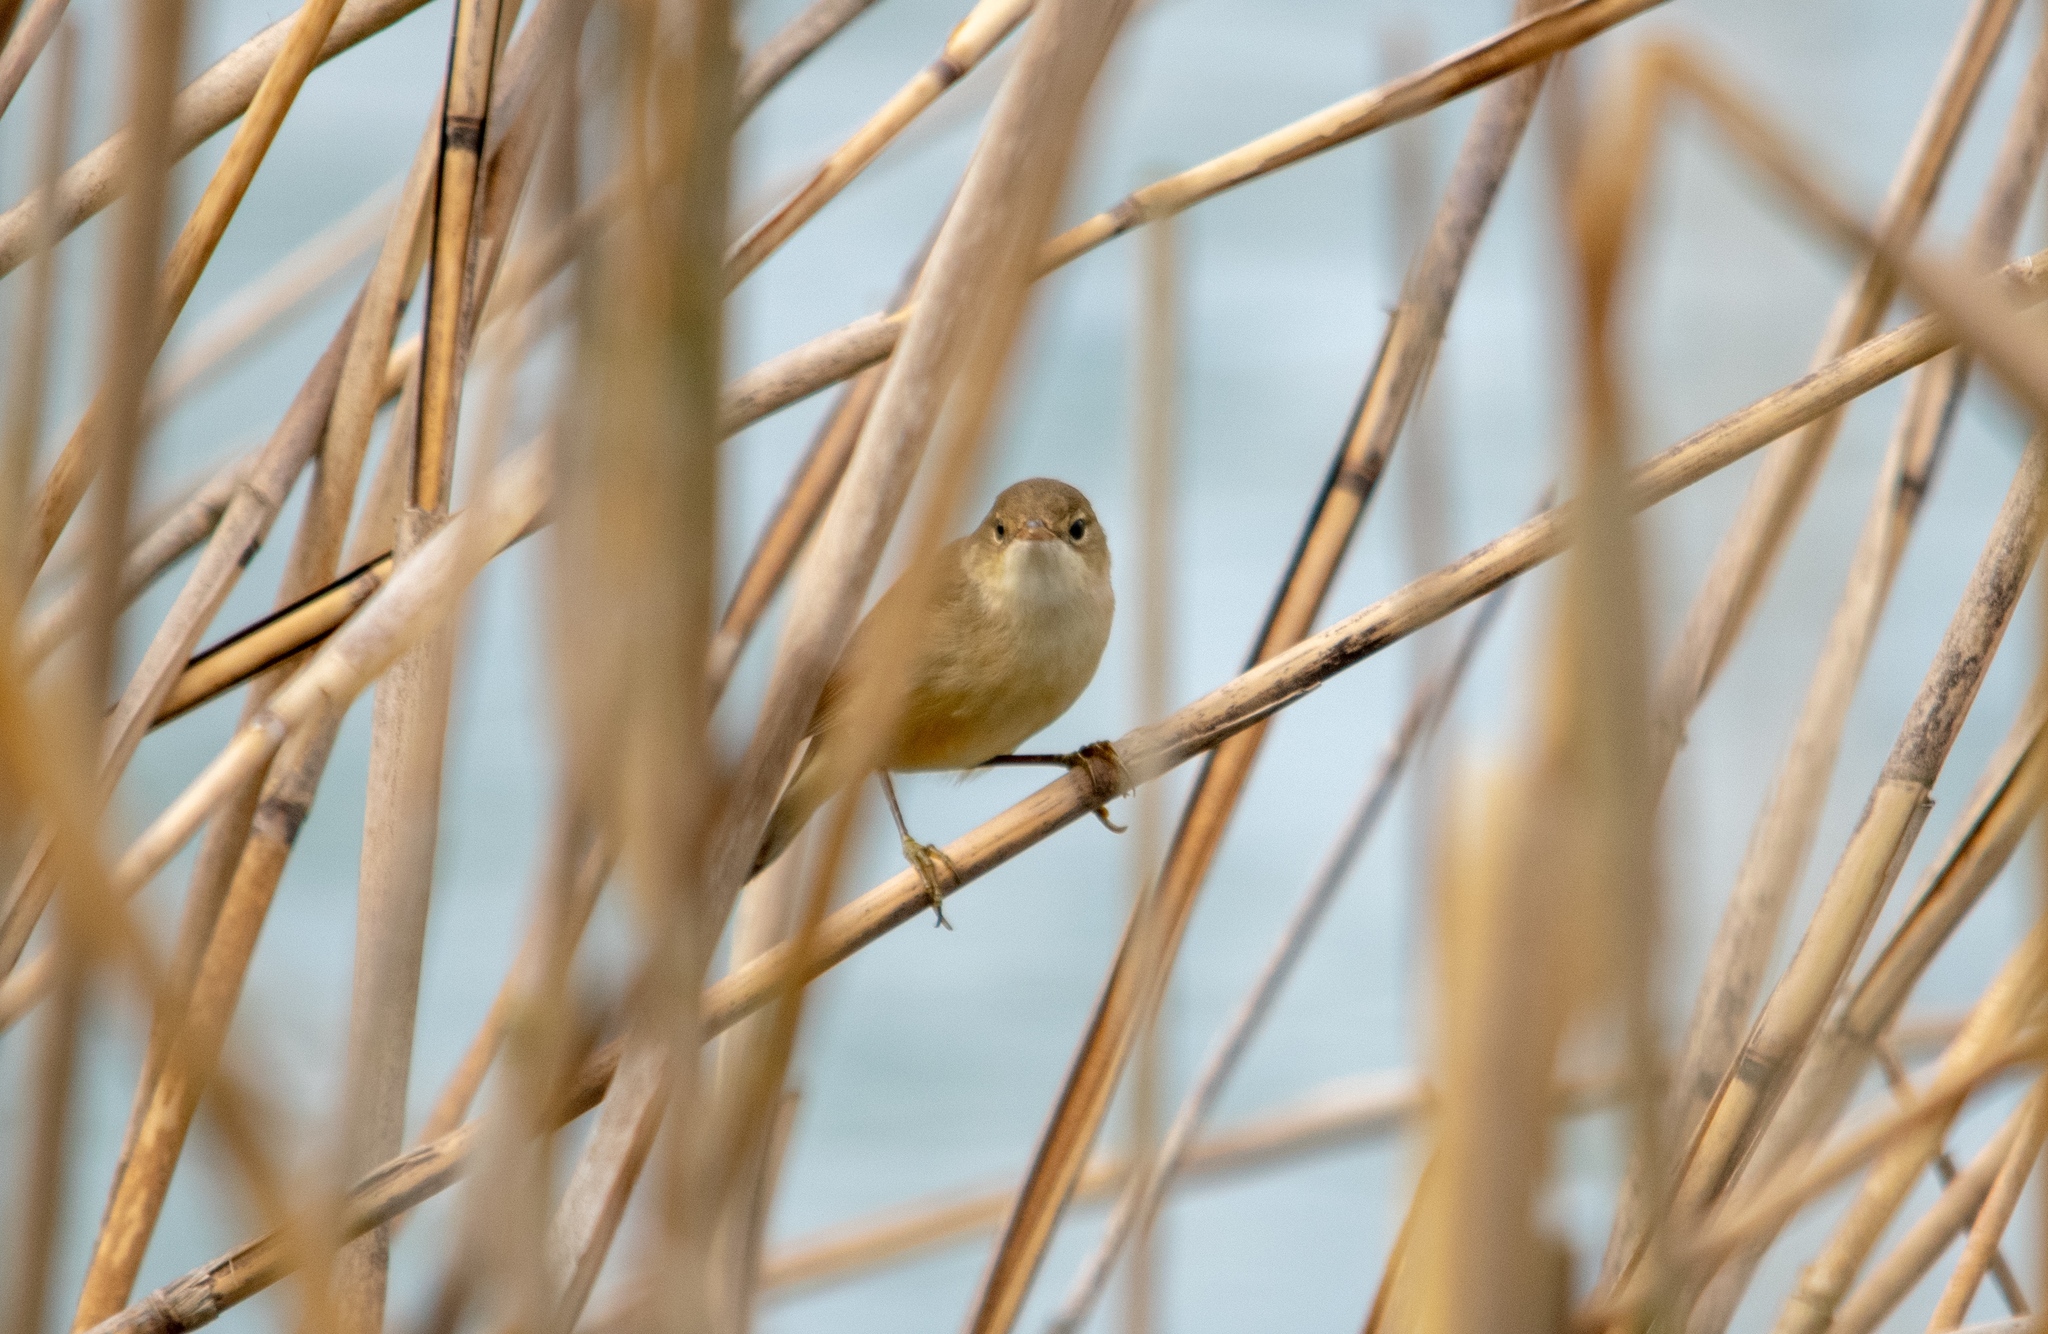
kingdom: Animalia
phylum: Chordata
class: Aves
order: Passeriformes
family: Acrocephalidae
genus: Acrocephalus
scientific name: Acrocephalus scirpaceus
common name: Eurasian reed warbler
